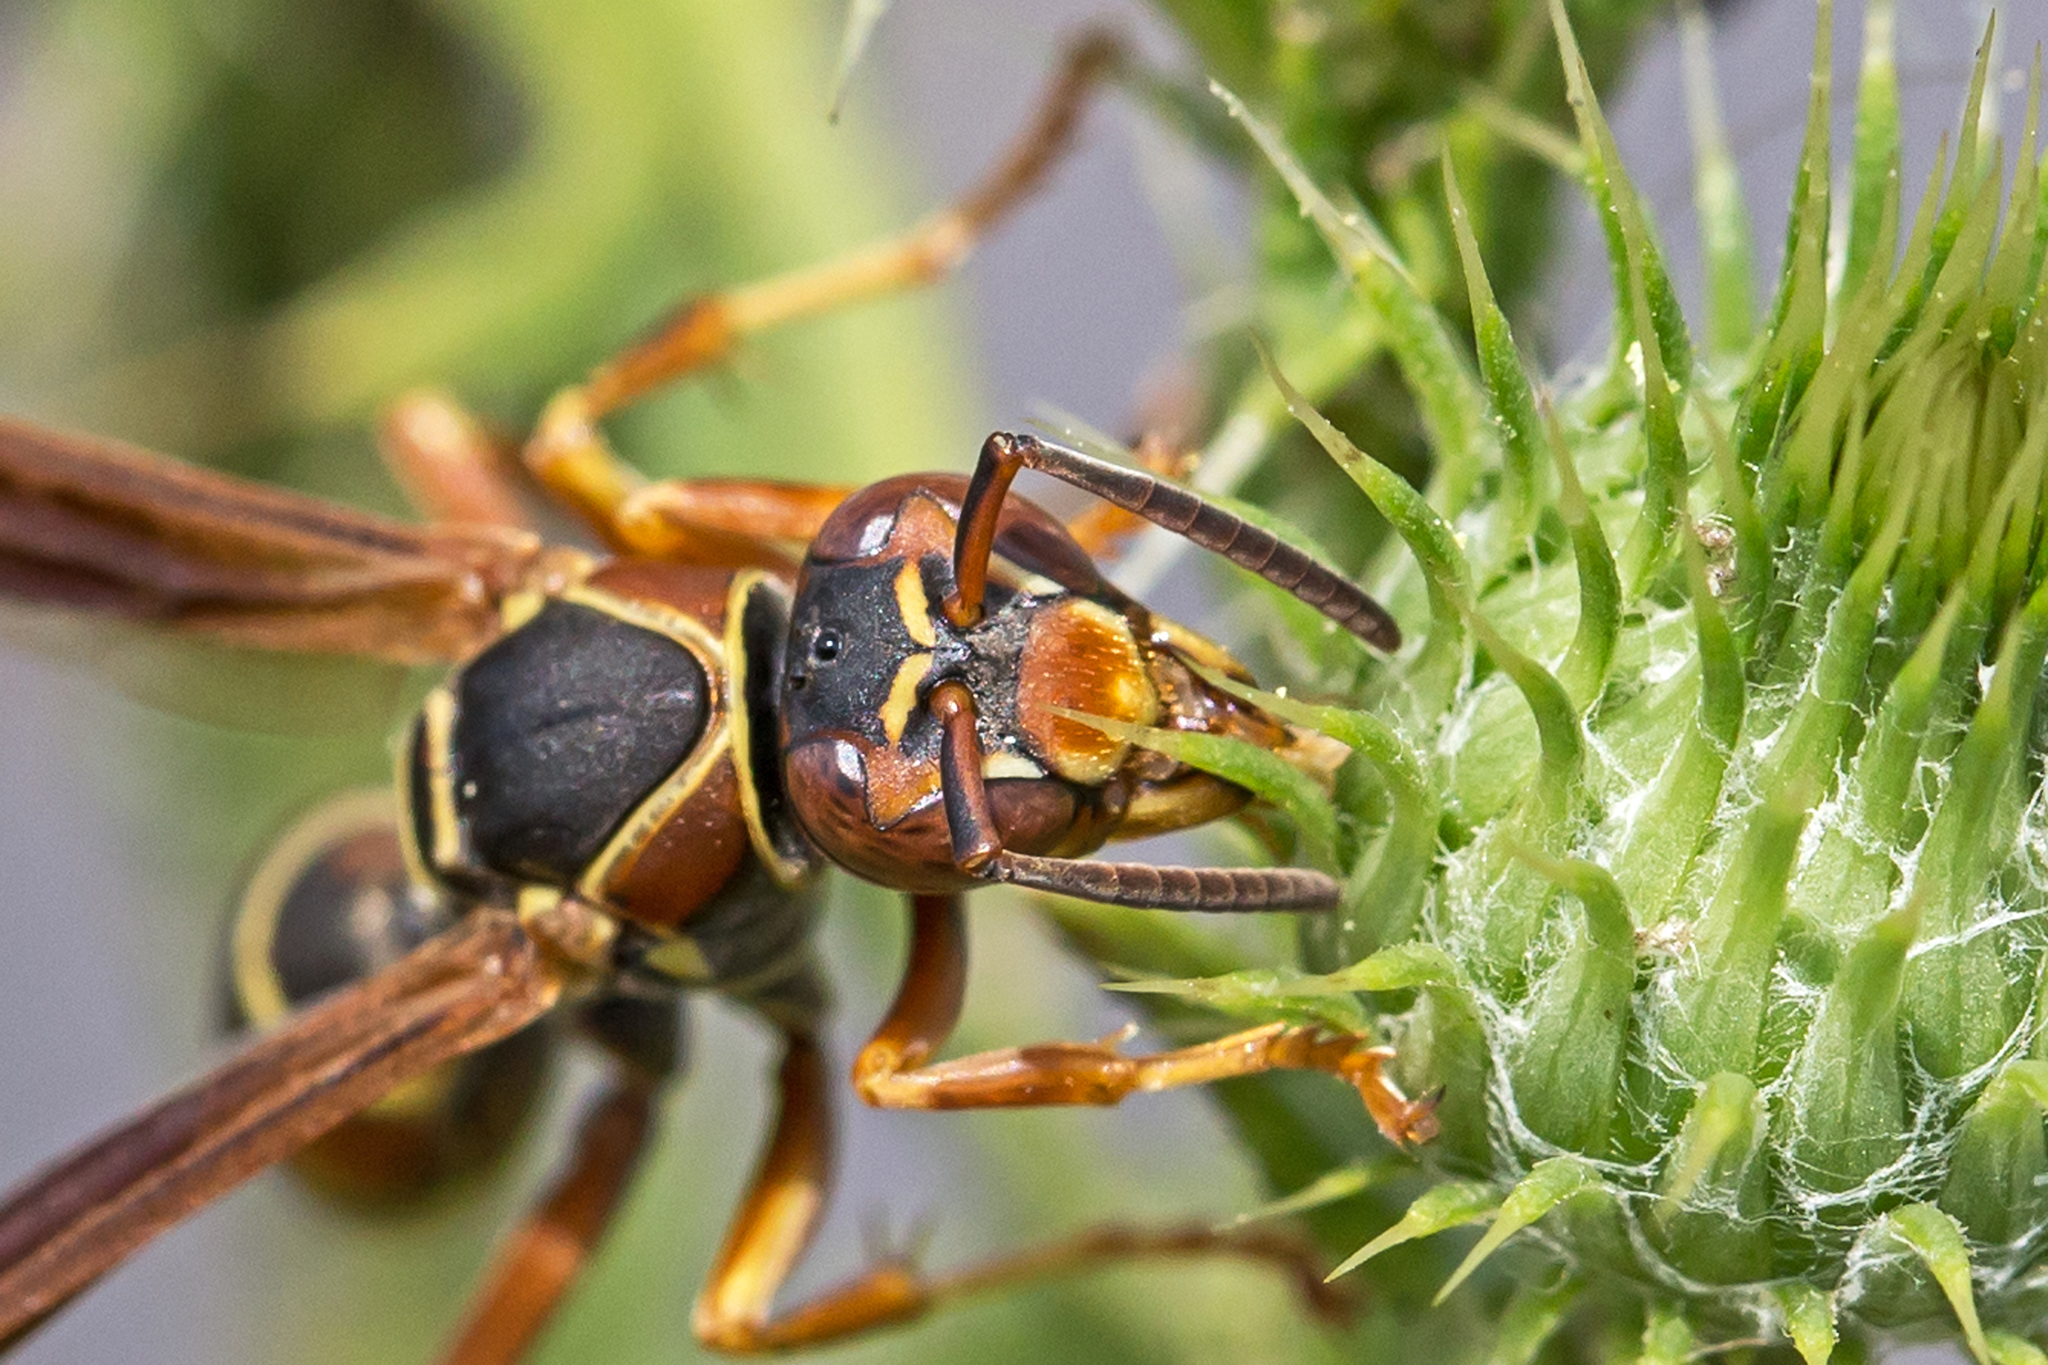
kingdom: Animalia
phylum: Arthropoda
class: Insecta
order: Hymenoptera
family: Eumenidae
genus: Polistes
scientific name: Polistes fuscatus
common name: Dark paper wasp
